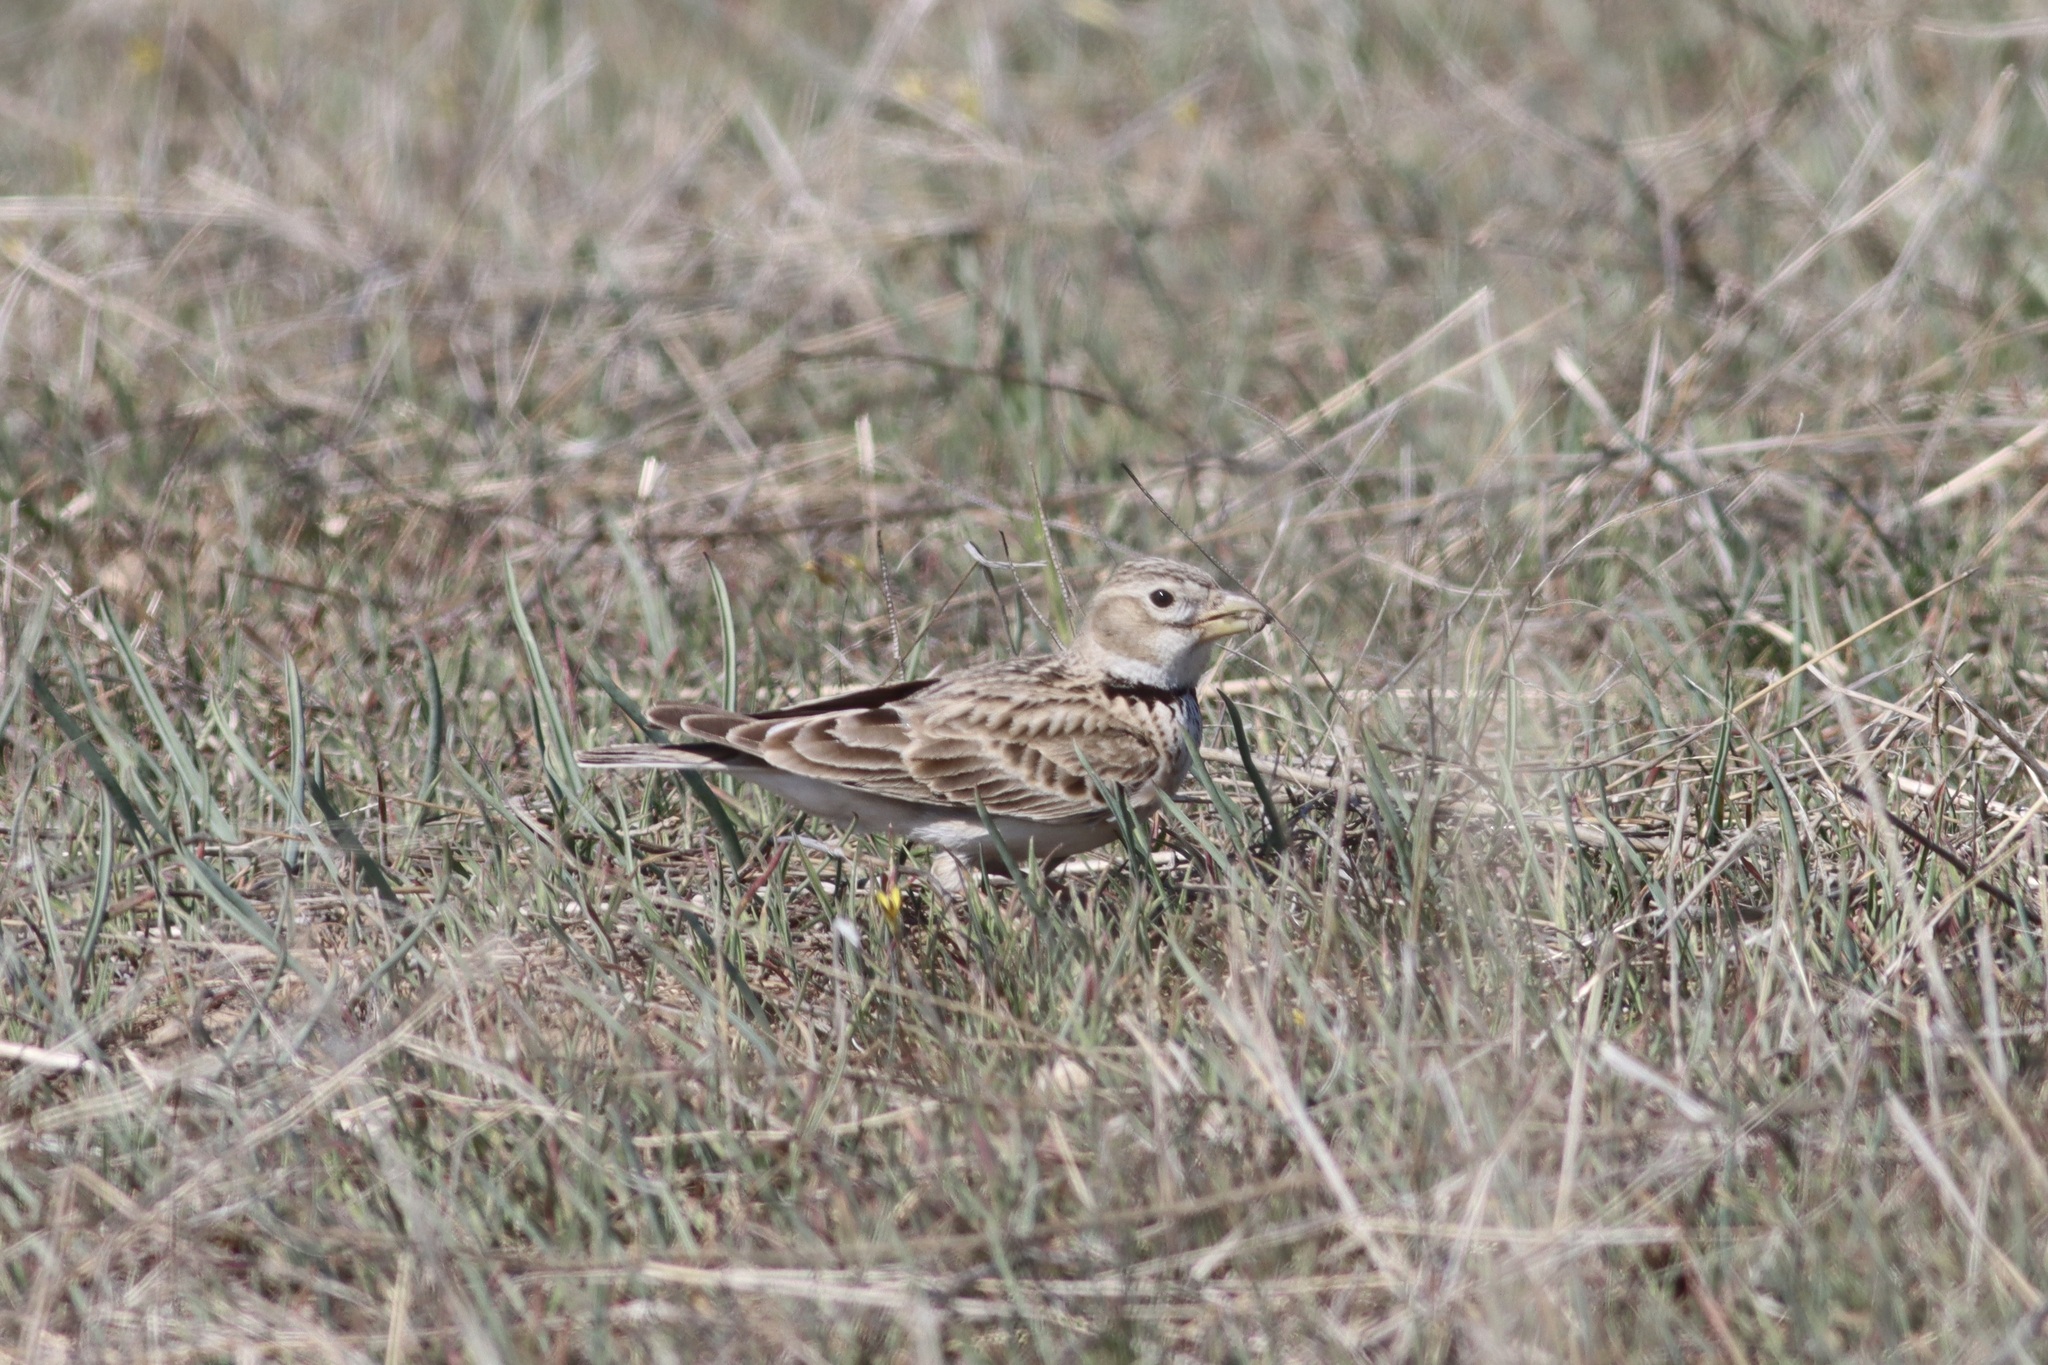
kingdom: Animalia
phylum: Chordata
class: Aves
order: Passeriformes
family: Alaudidae
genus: Melanocorypha
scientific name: Melanocorypha calandra
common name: Calandra lark
